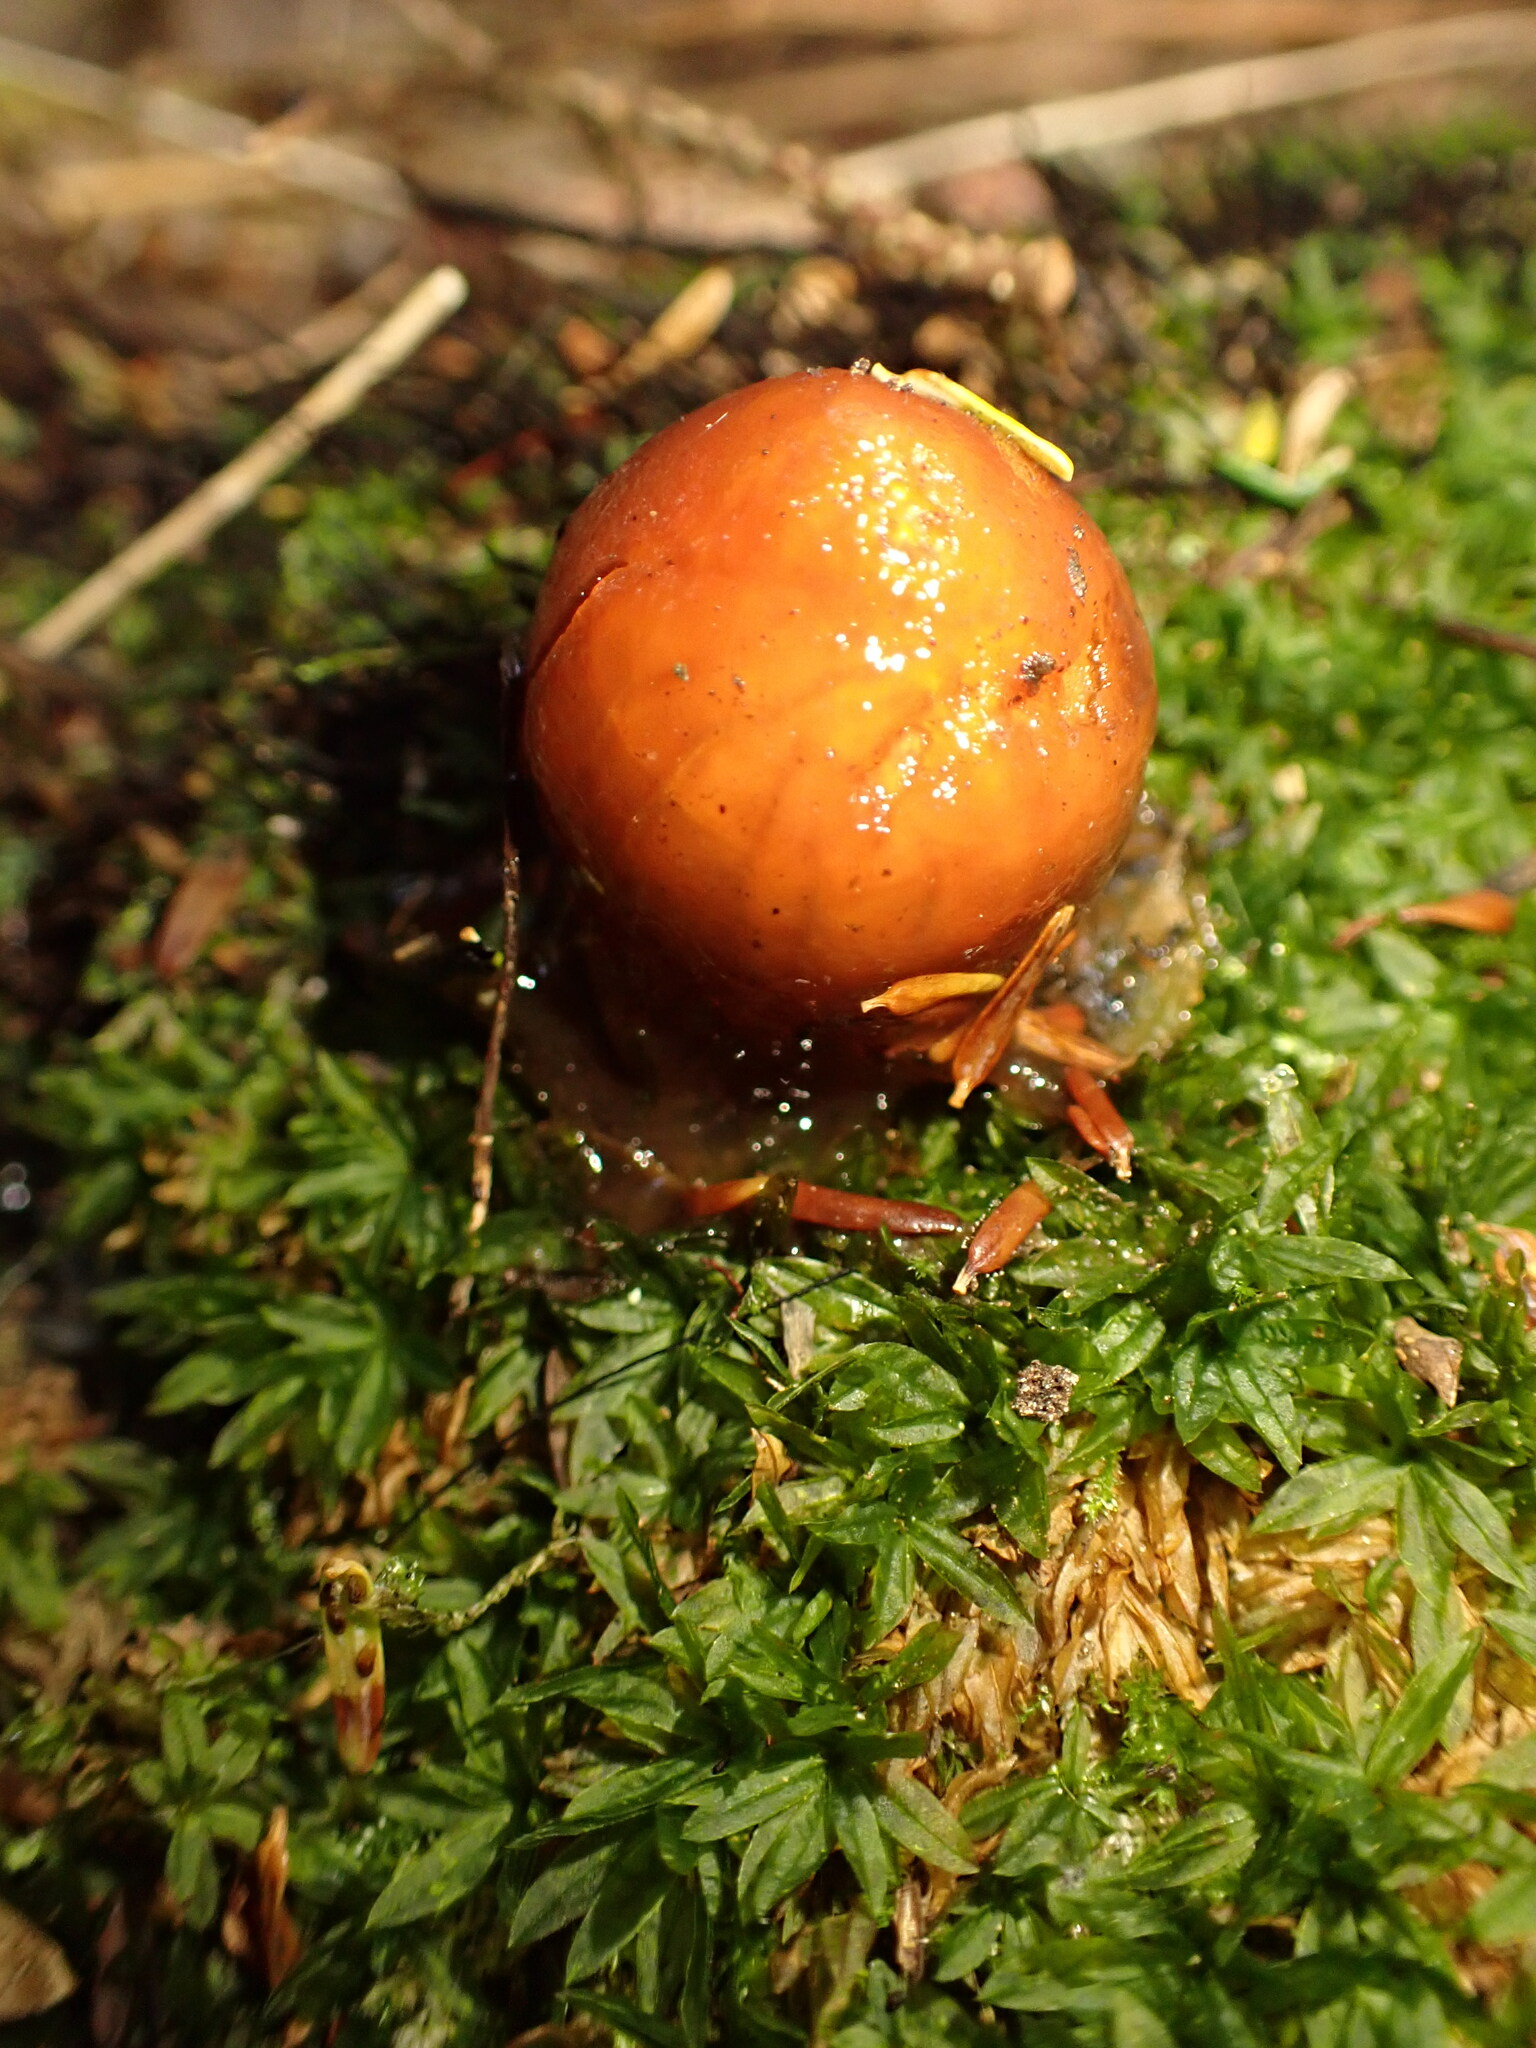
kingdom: Fungi
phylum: Basidiomycota
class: Agaricomycetes
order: Boletales
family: Calostomataceae
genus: Calostoma
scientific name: Calostoma cinnabarinum
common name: Stalked puffball-in-aspic
